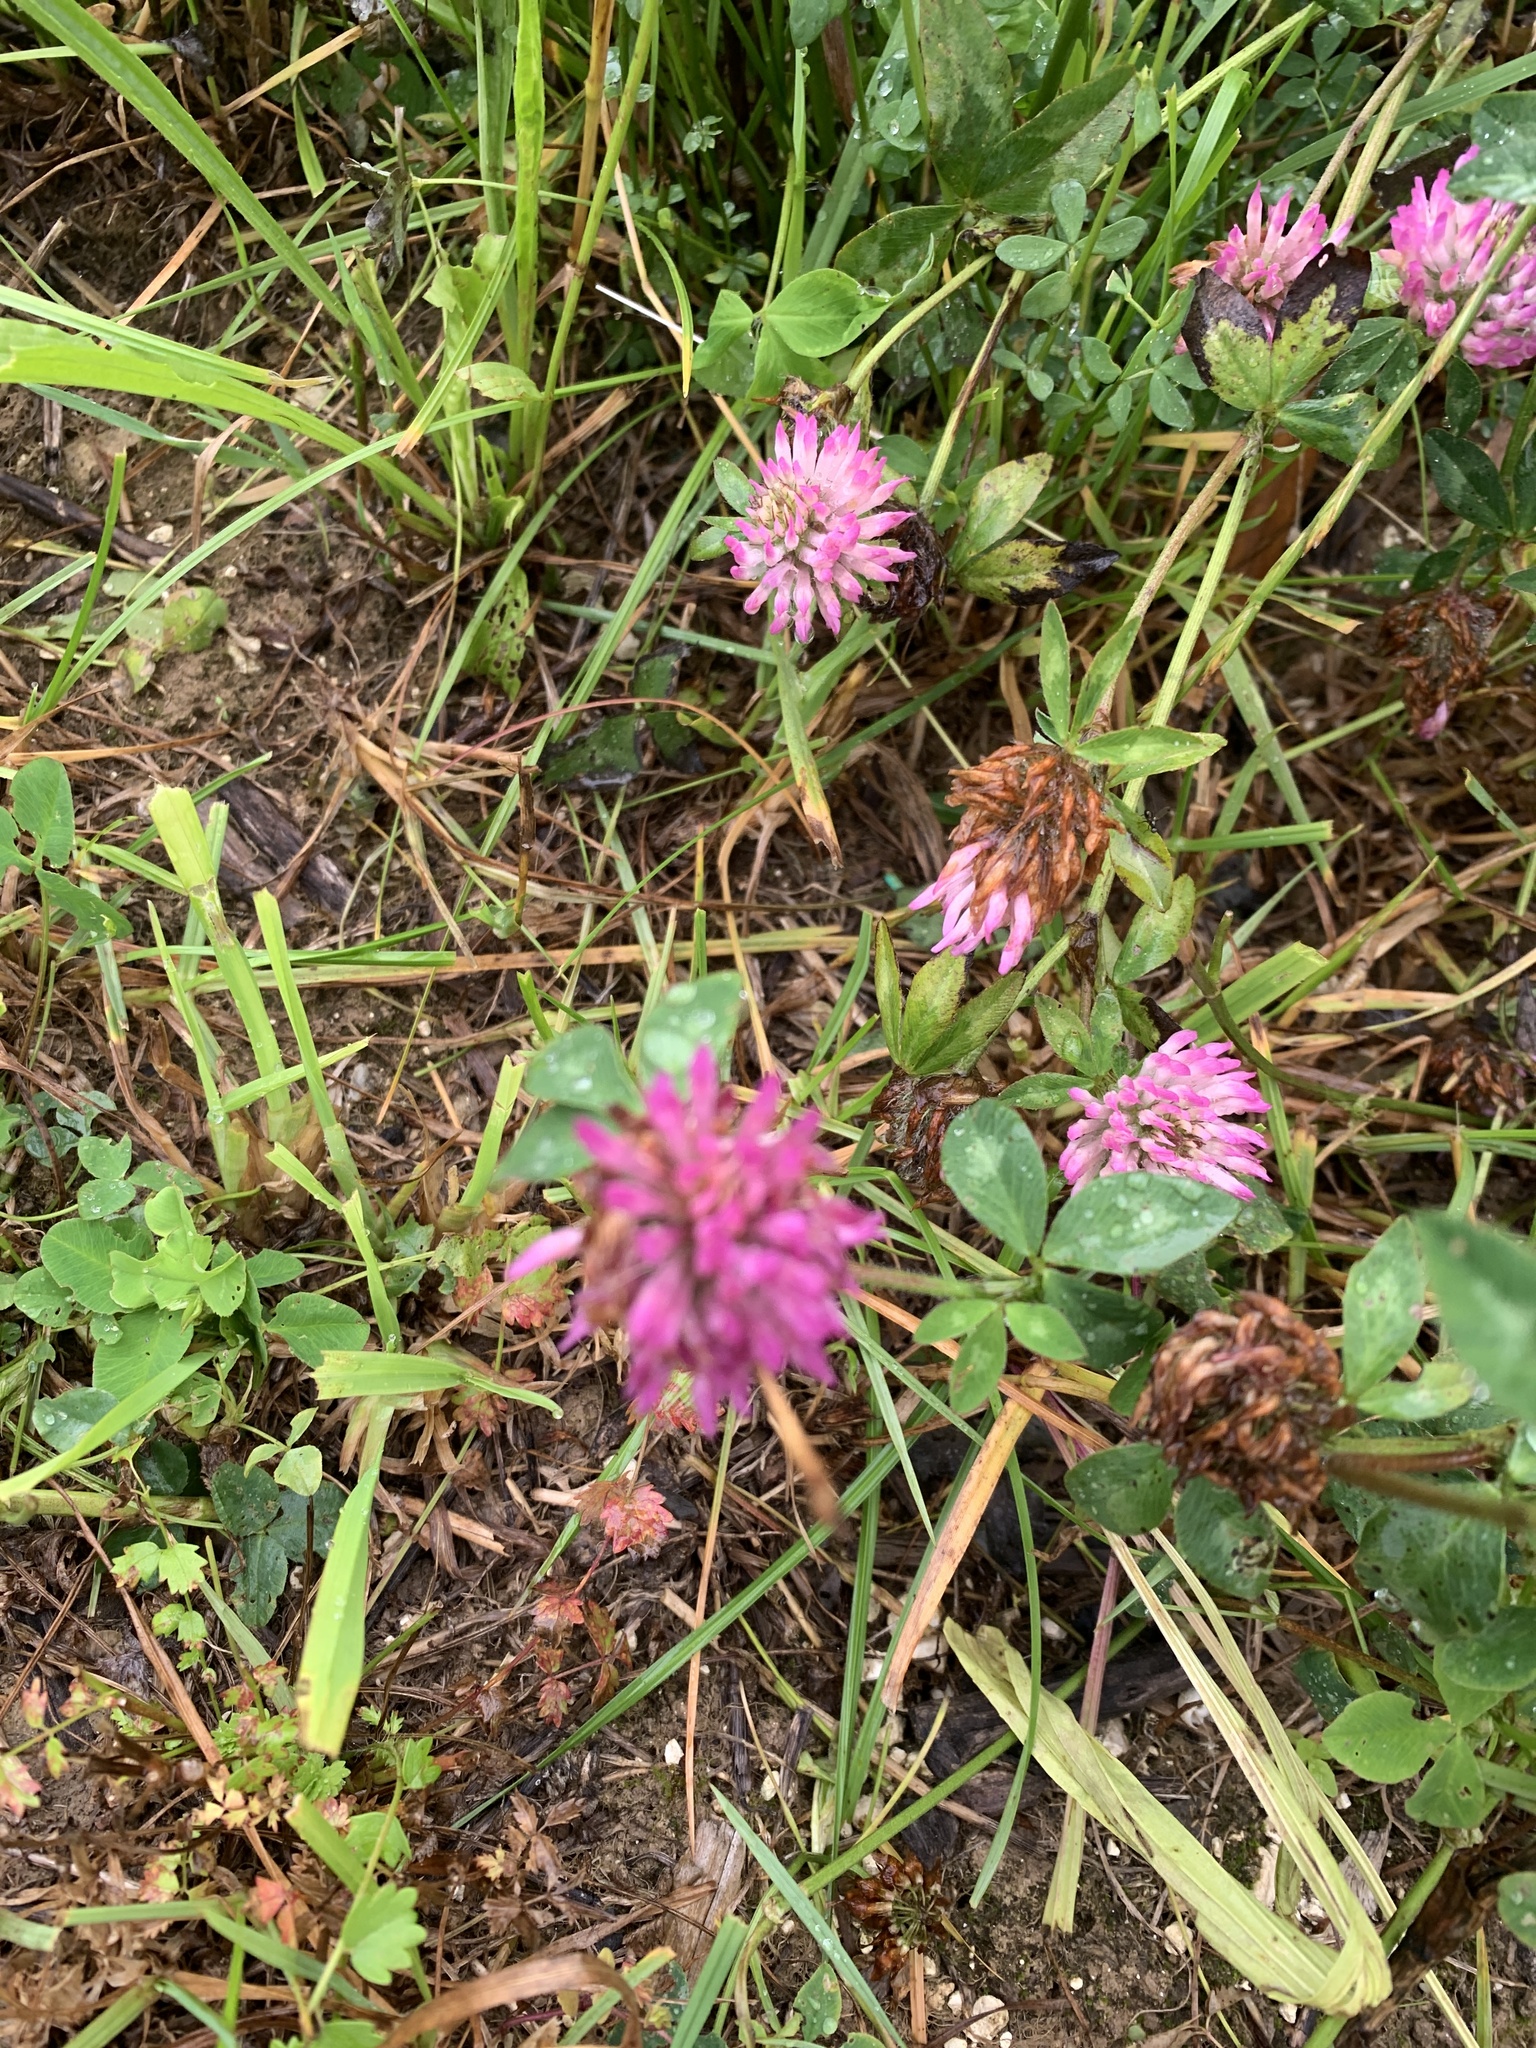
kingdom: Plantae
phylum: Tracheophyta
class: Magnoliopsida
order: Fabales
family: Fabaceae
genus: Trifolium
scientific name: Trifolium pratense
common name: Red clover
